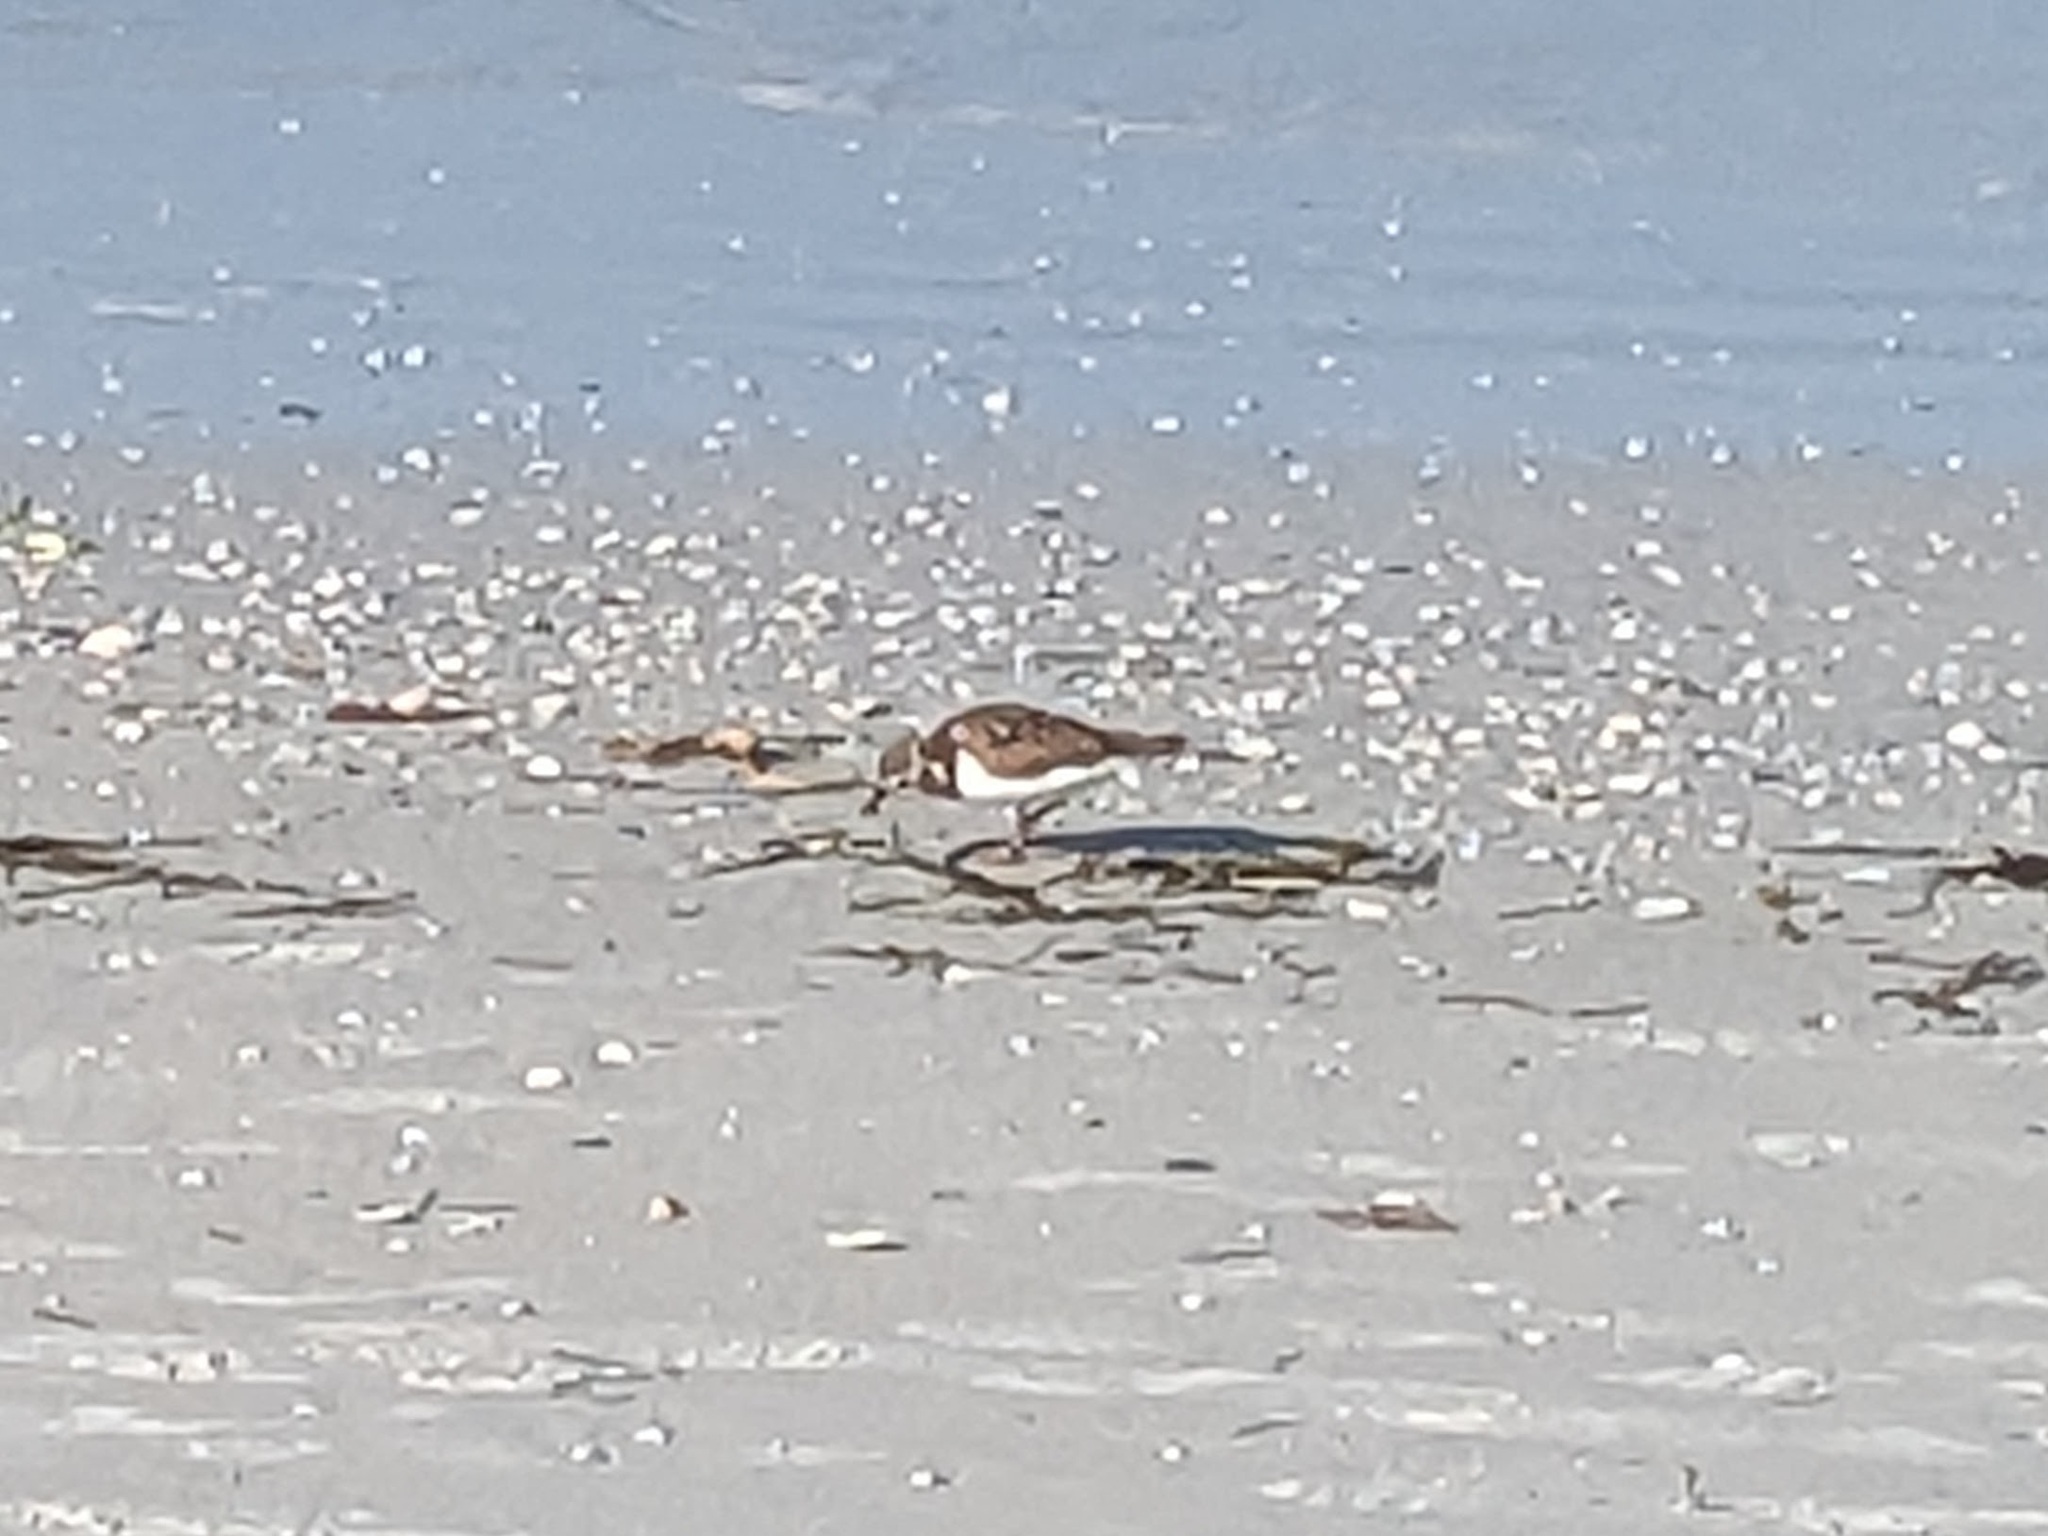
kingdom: Animalia
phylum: Chordata
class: Aves
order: Charadriiformes
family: Scolopacidae
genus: Arenaria
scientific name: Arenaria interpres
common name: Ruddy turnstone
